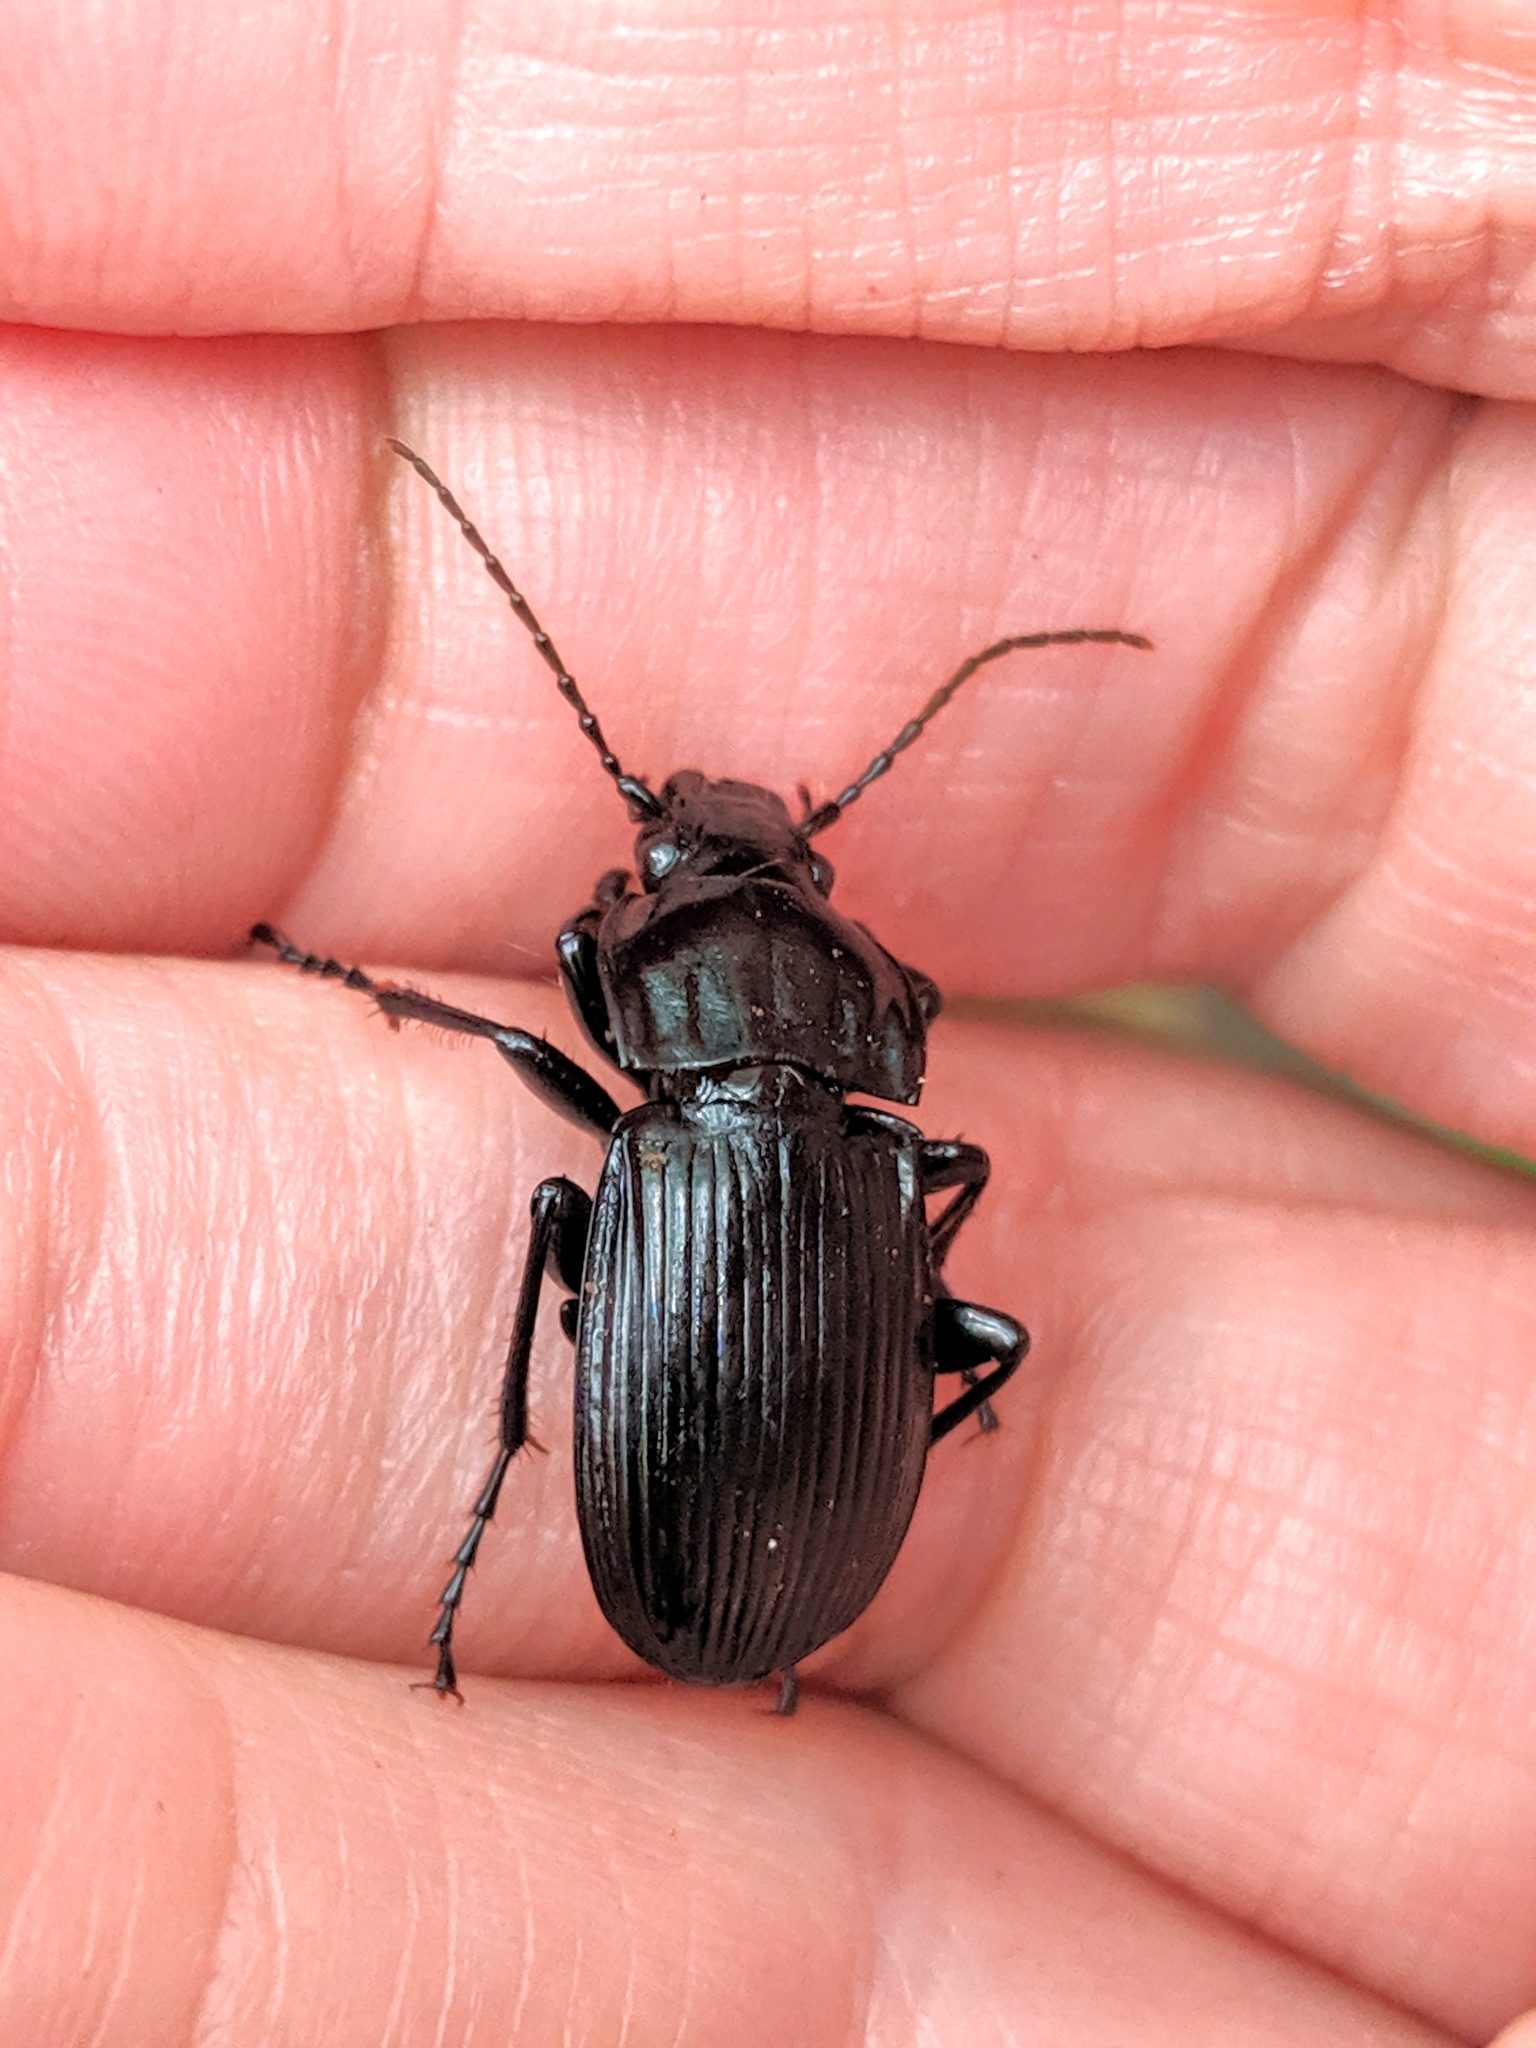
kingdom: Animalia
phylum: Arthropoda
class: Insecta
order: Coleoptera
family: Carabidae
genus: Abax
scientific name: Abax parallelepipedus
